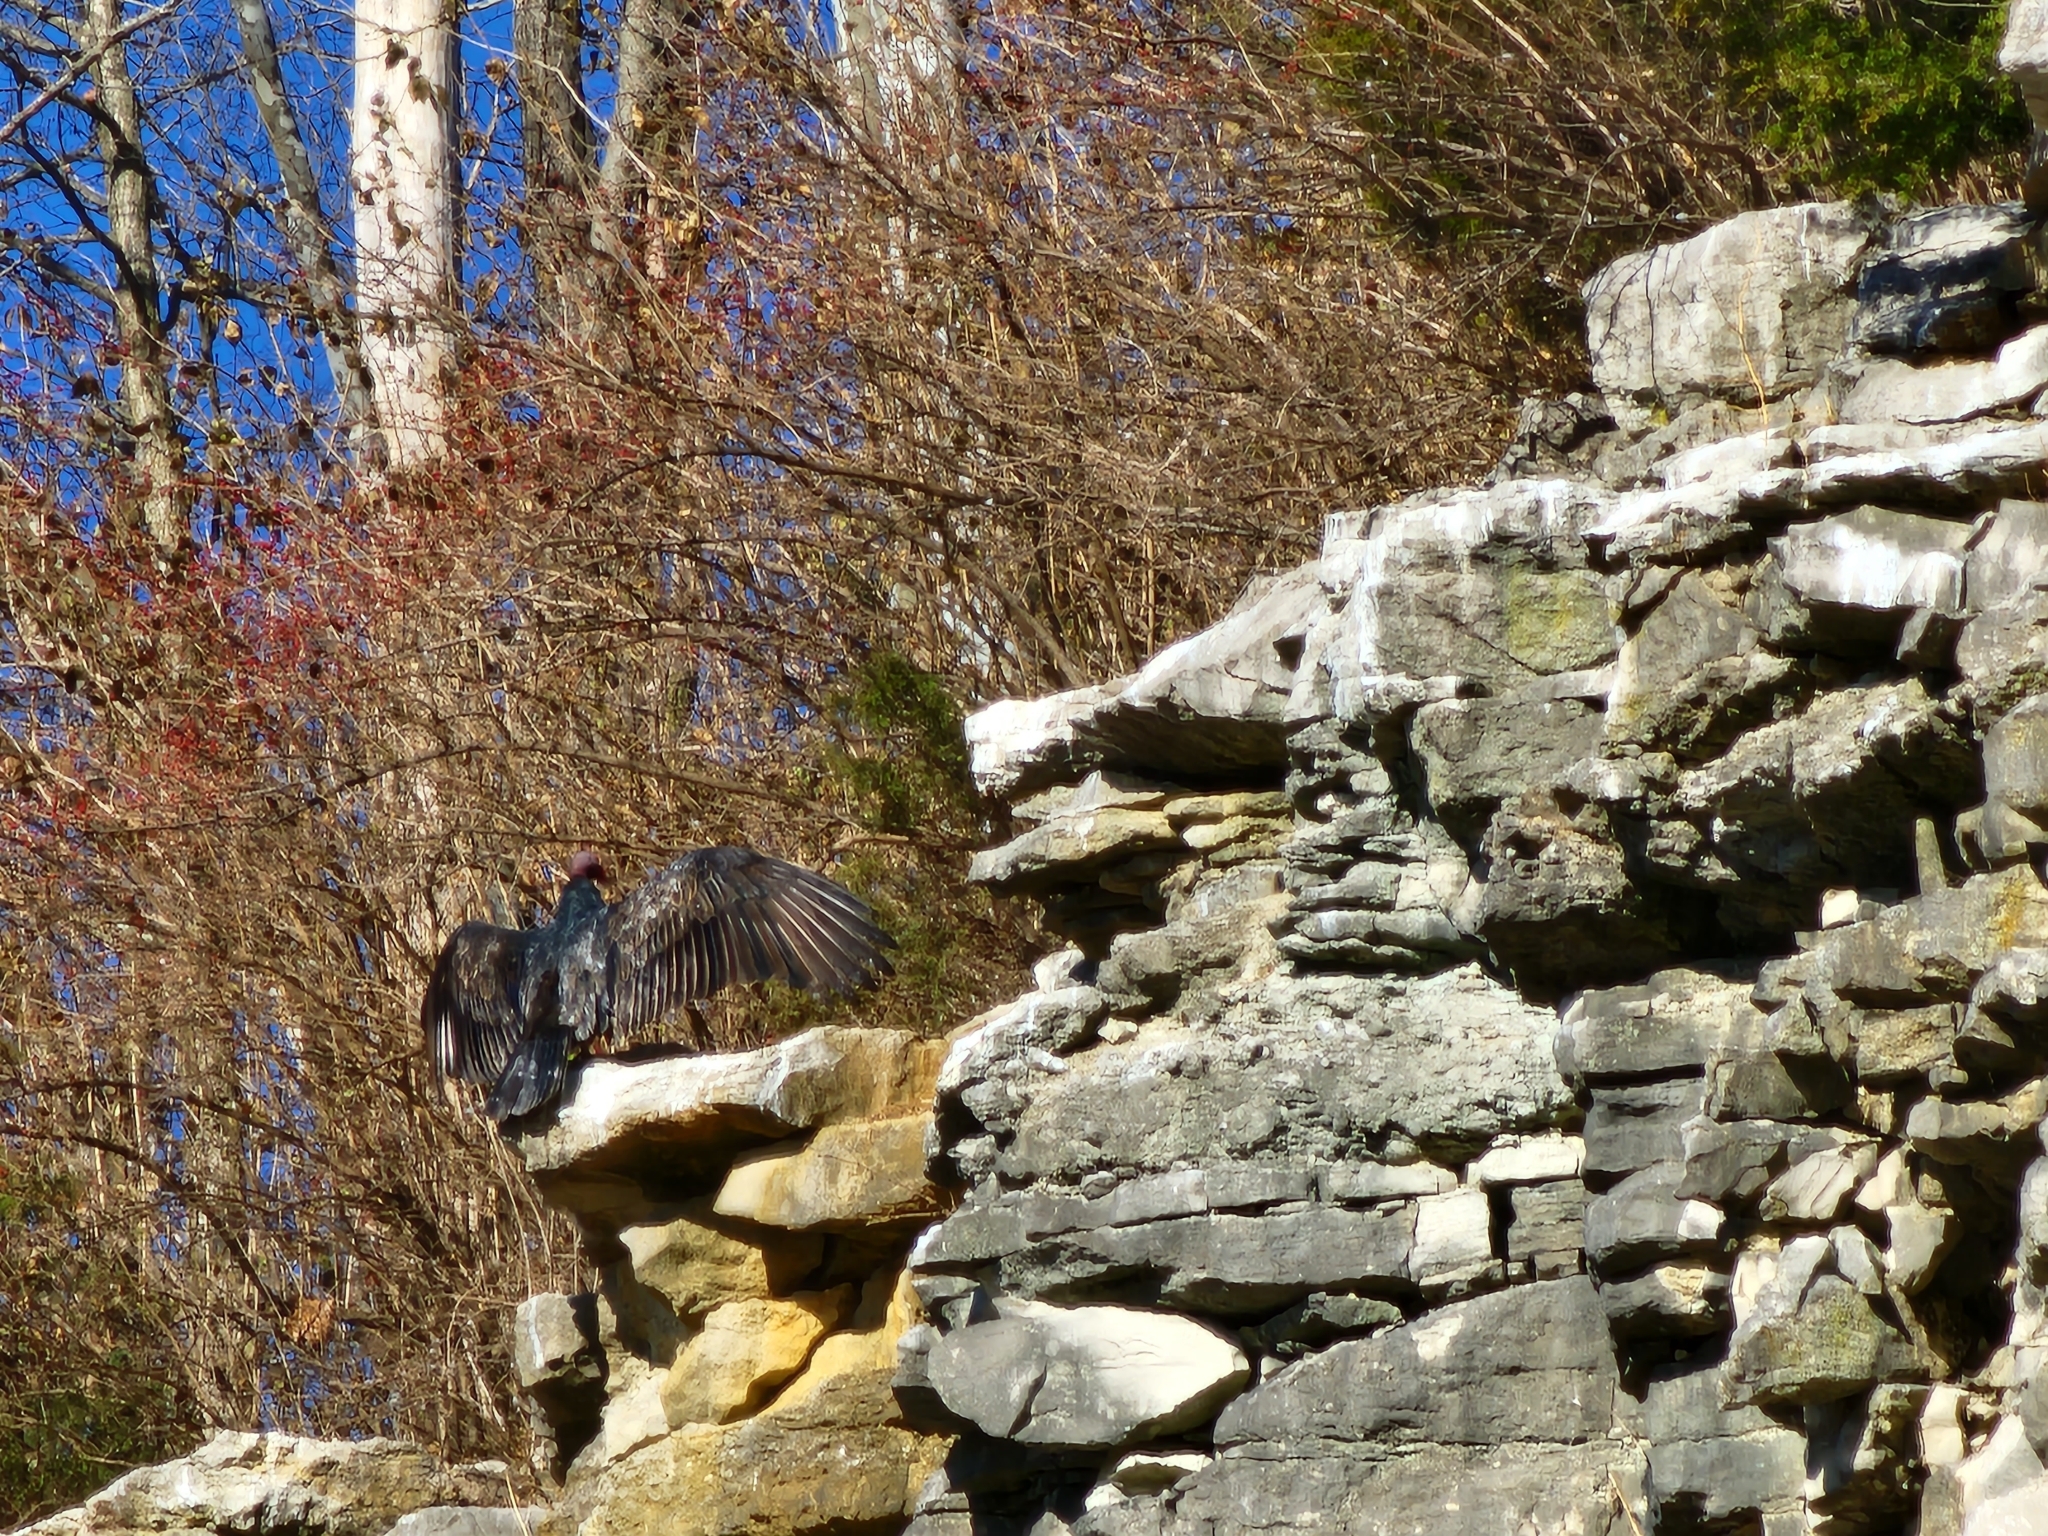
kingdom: Animalia
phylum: Chordata
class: Aves
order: Accipitriformes
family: Cathartidae
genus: Cathartes
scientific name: Cathartes aura
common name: Turkey vulture
